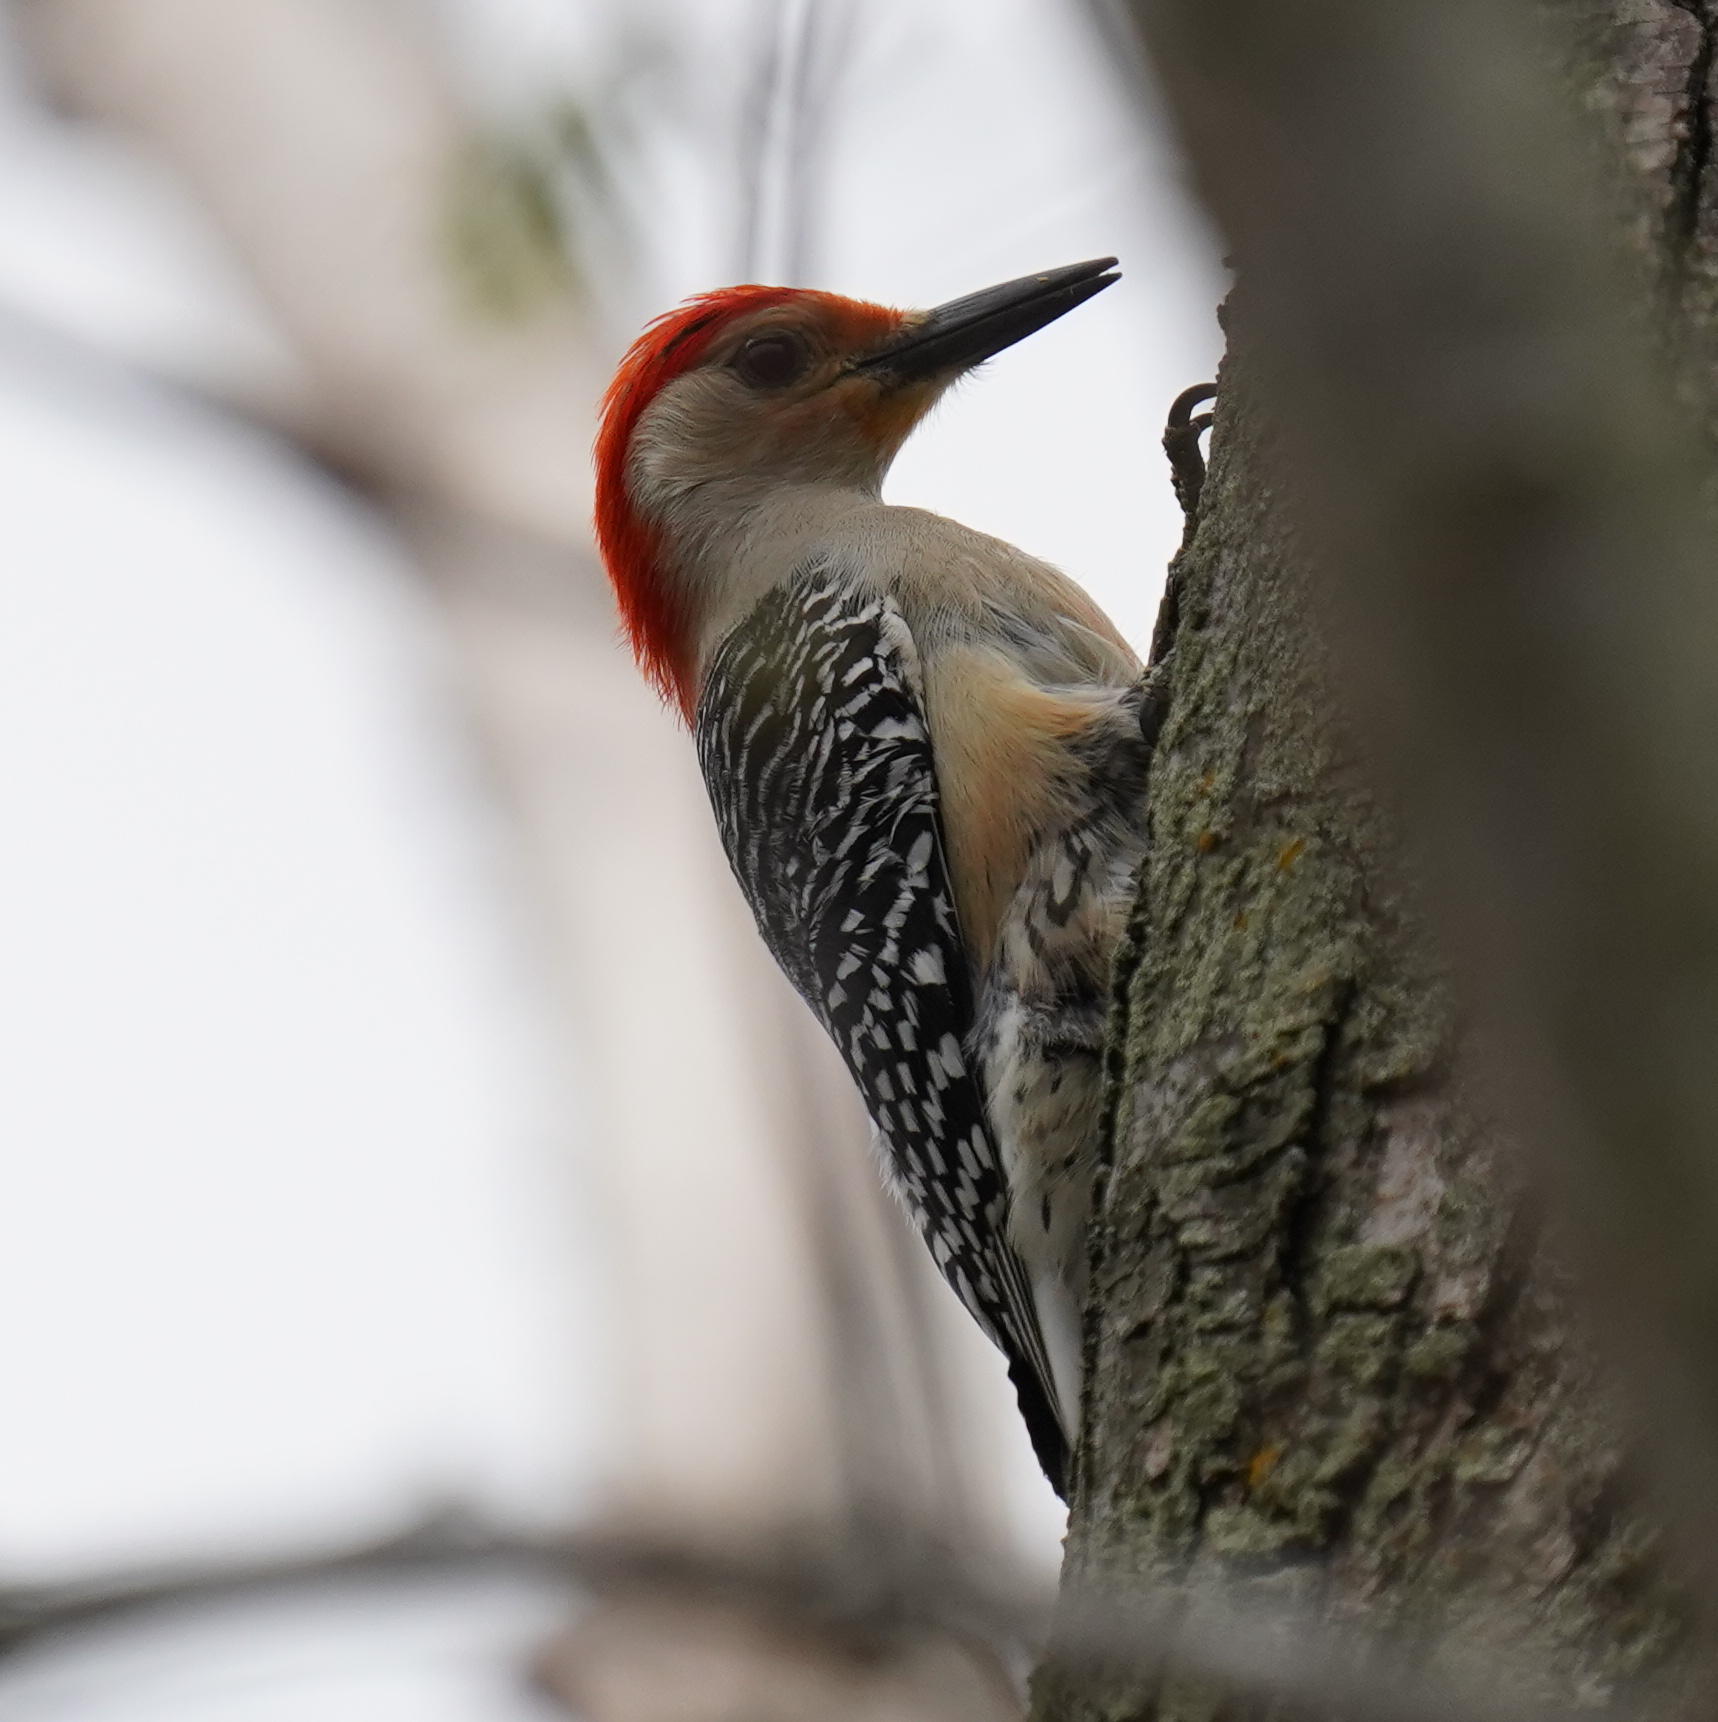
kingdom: Animalia
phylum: Chordata
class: Aves
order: Piciformes
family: Picidae
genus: Melanerpes
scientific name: Melanerpes carolinus
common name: Red-bellied woodpecker
